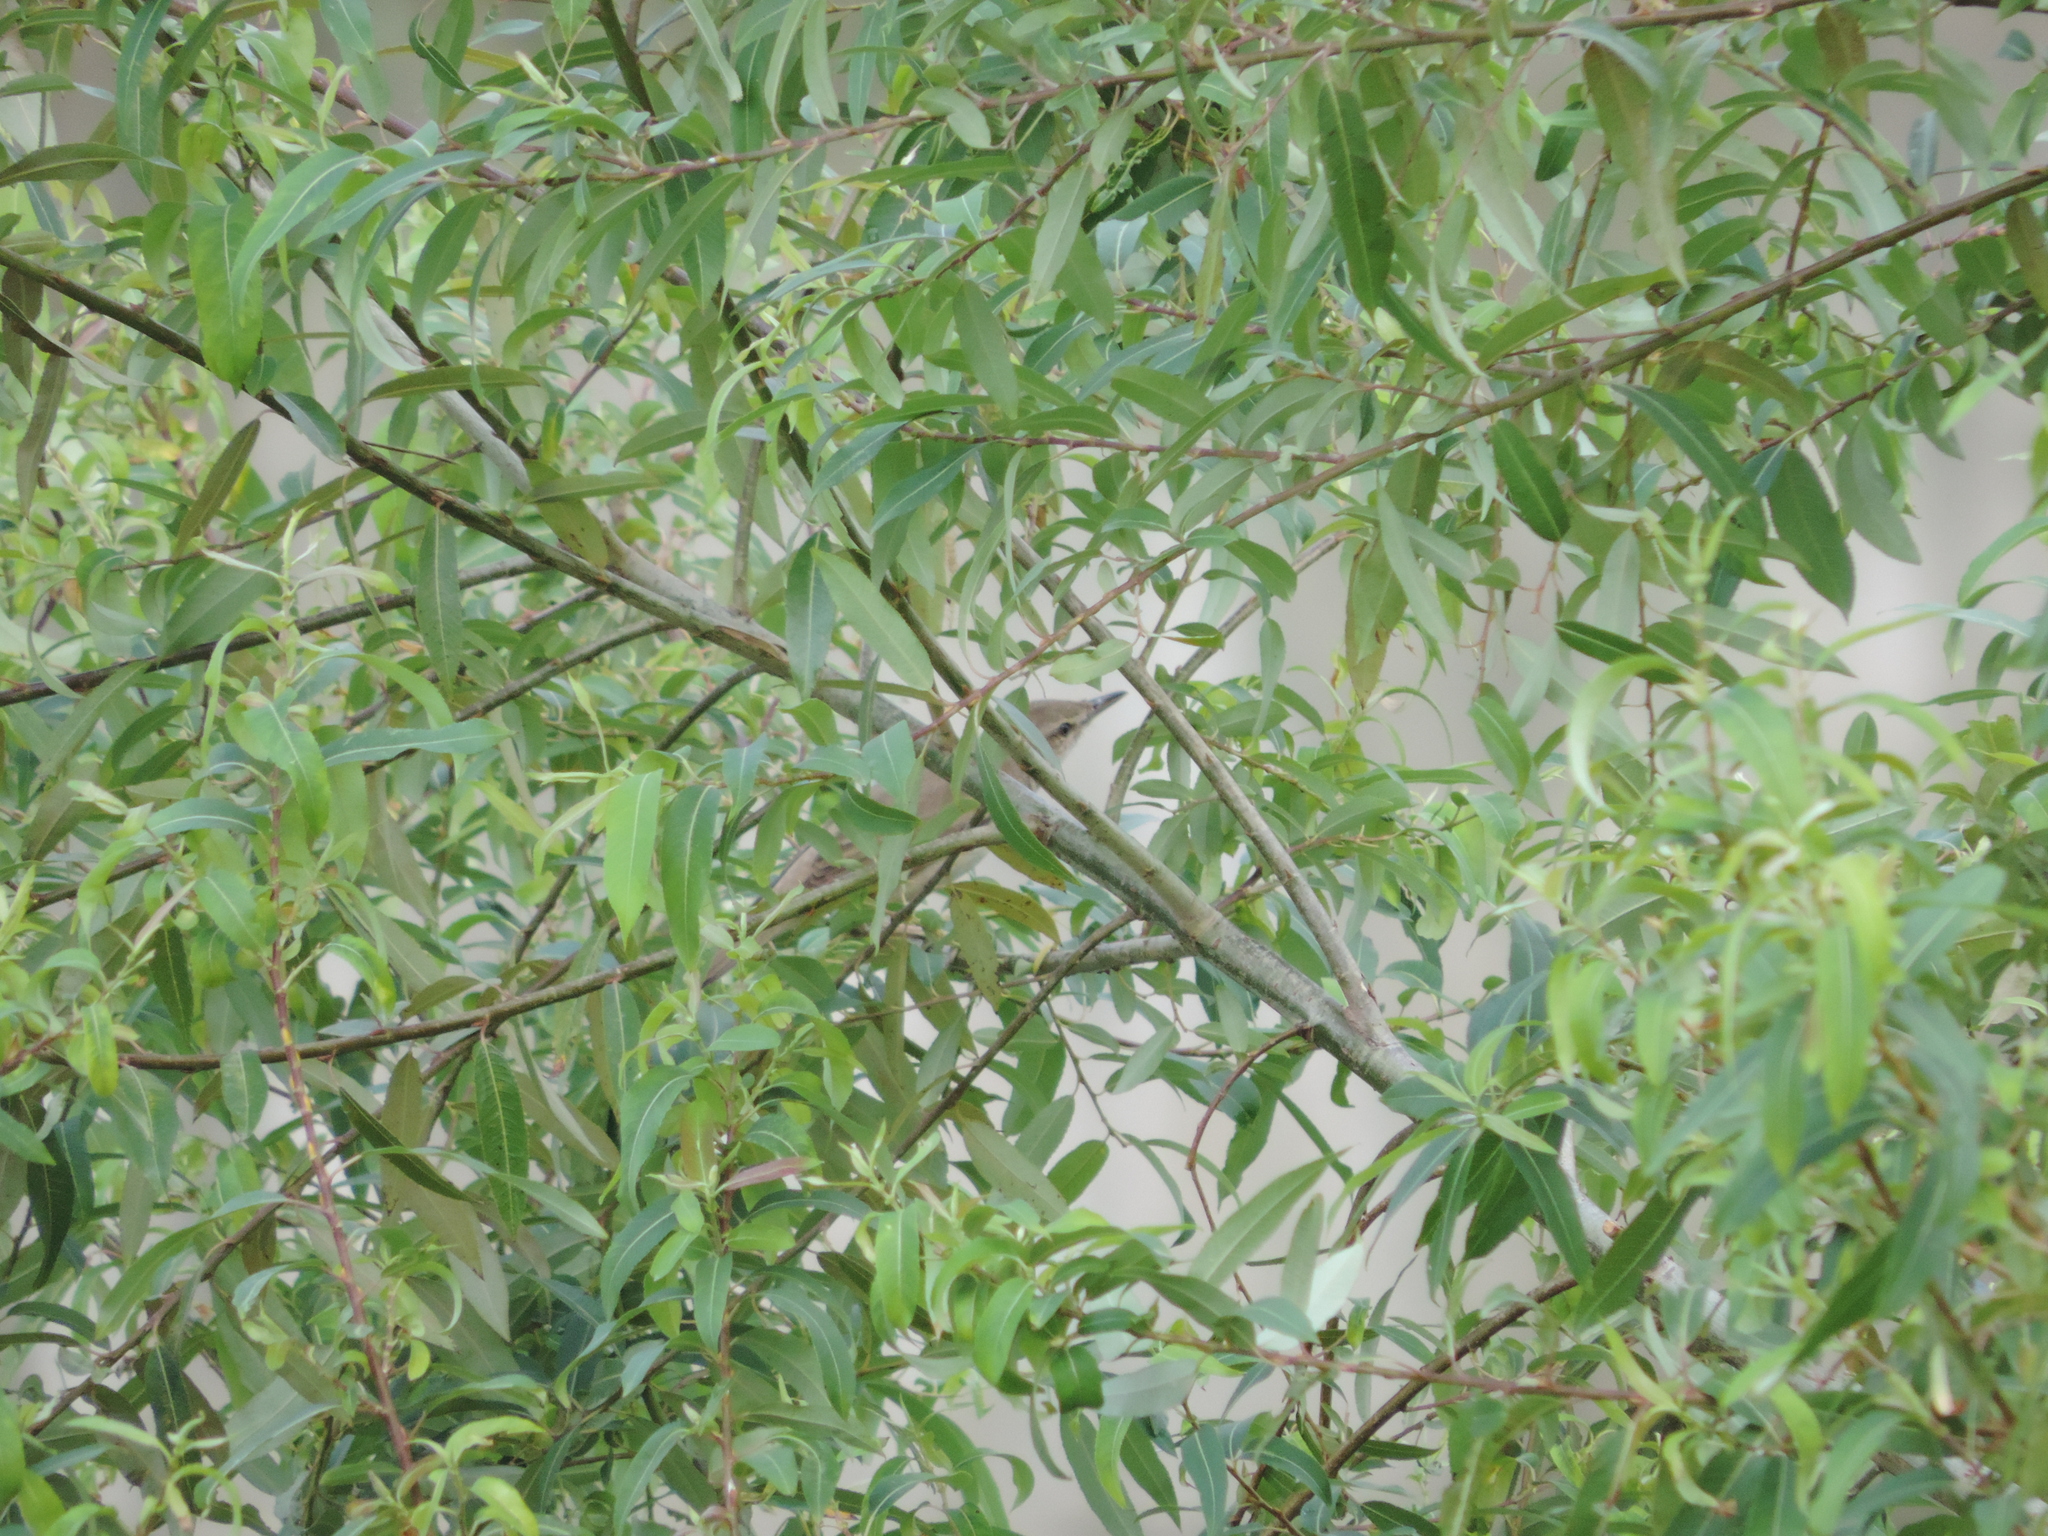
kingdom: Animalia
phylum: Chordata
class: Aves
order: Passeriformes
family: Acrocephalidae
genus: Acrocephalus
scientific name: Acrocephalus arundinaceus
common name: Great reed warbler
